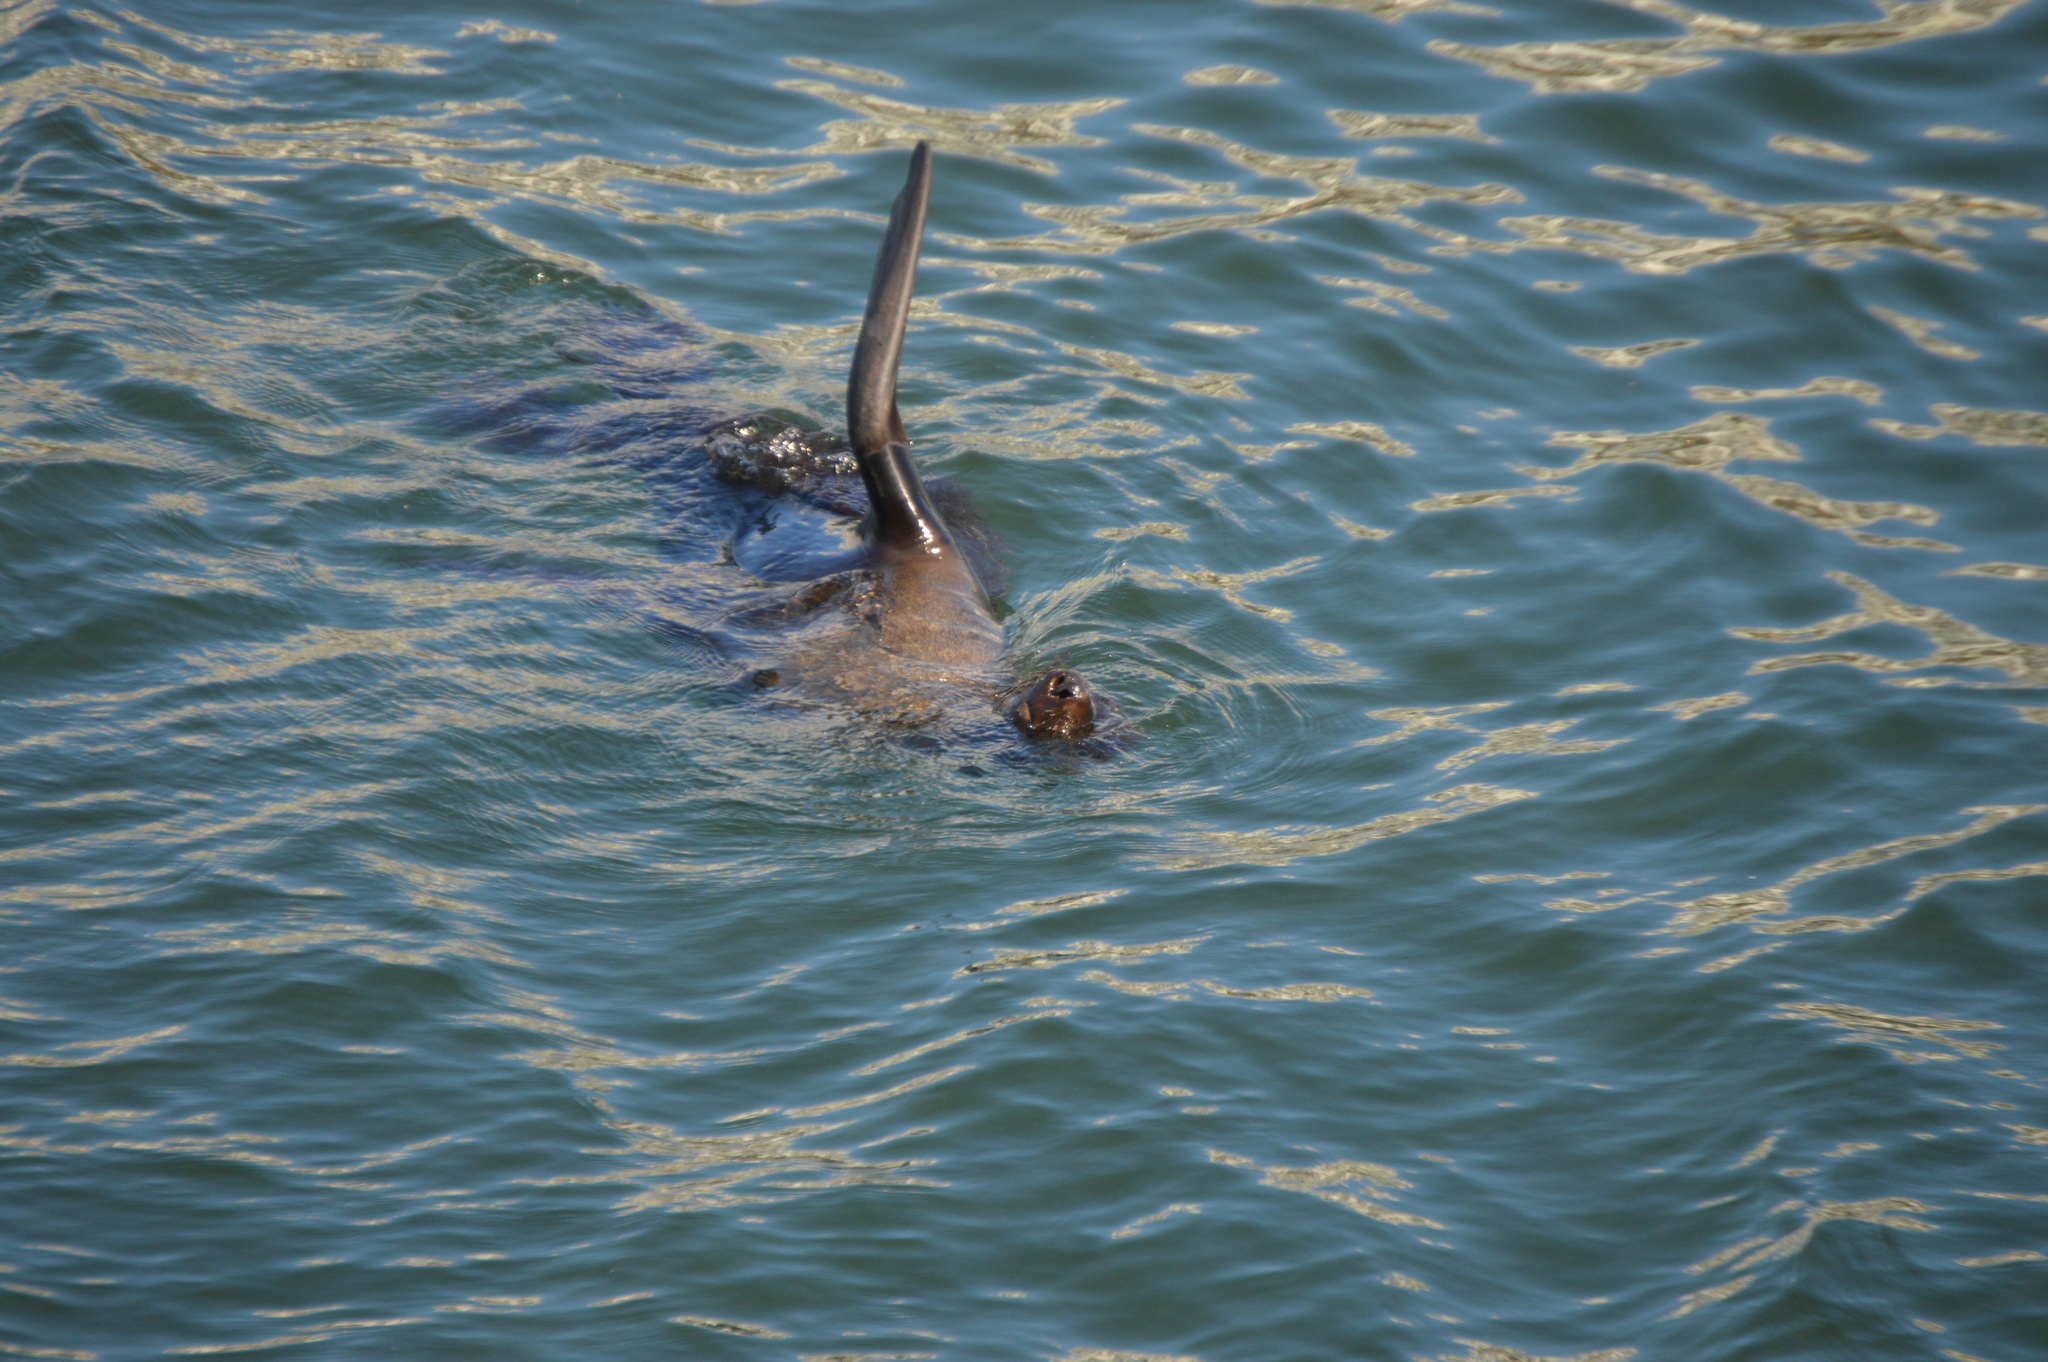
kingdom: Animalia
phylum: Chordata
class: Mammalia
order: Carnivora
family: Otariidae
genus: Arctocephalus
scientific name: Arctocephalus pusillus
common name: Brown fur seal
